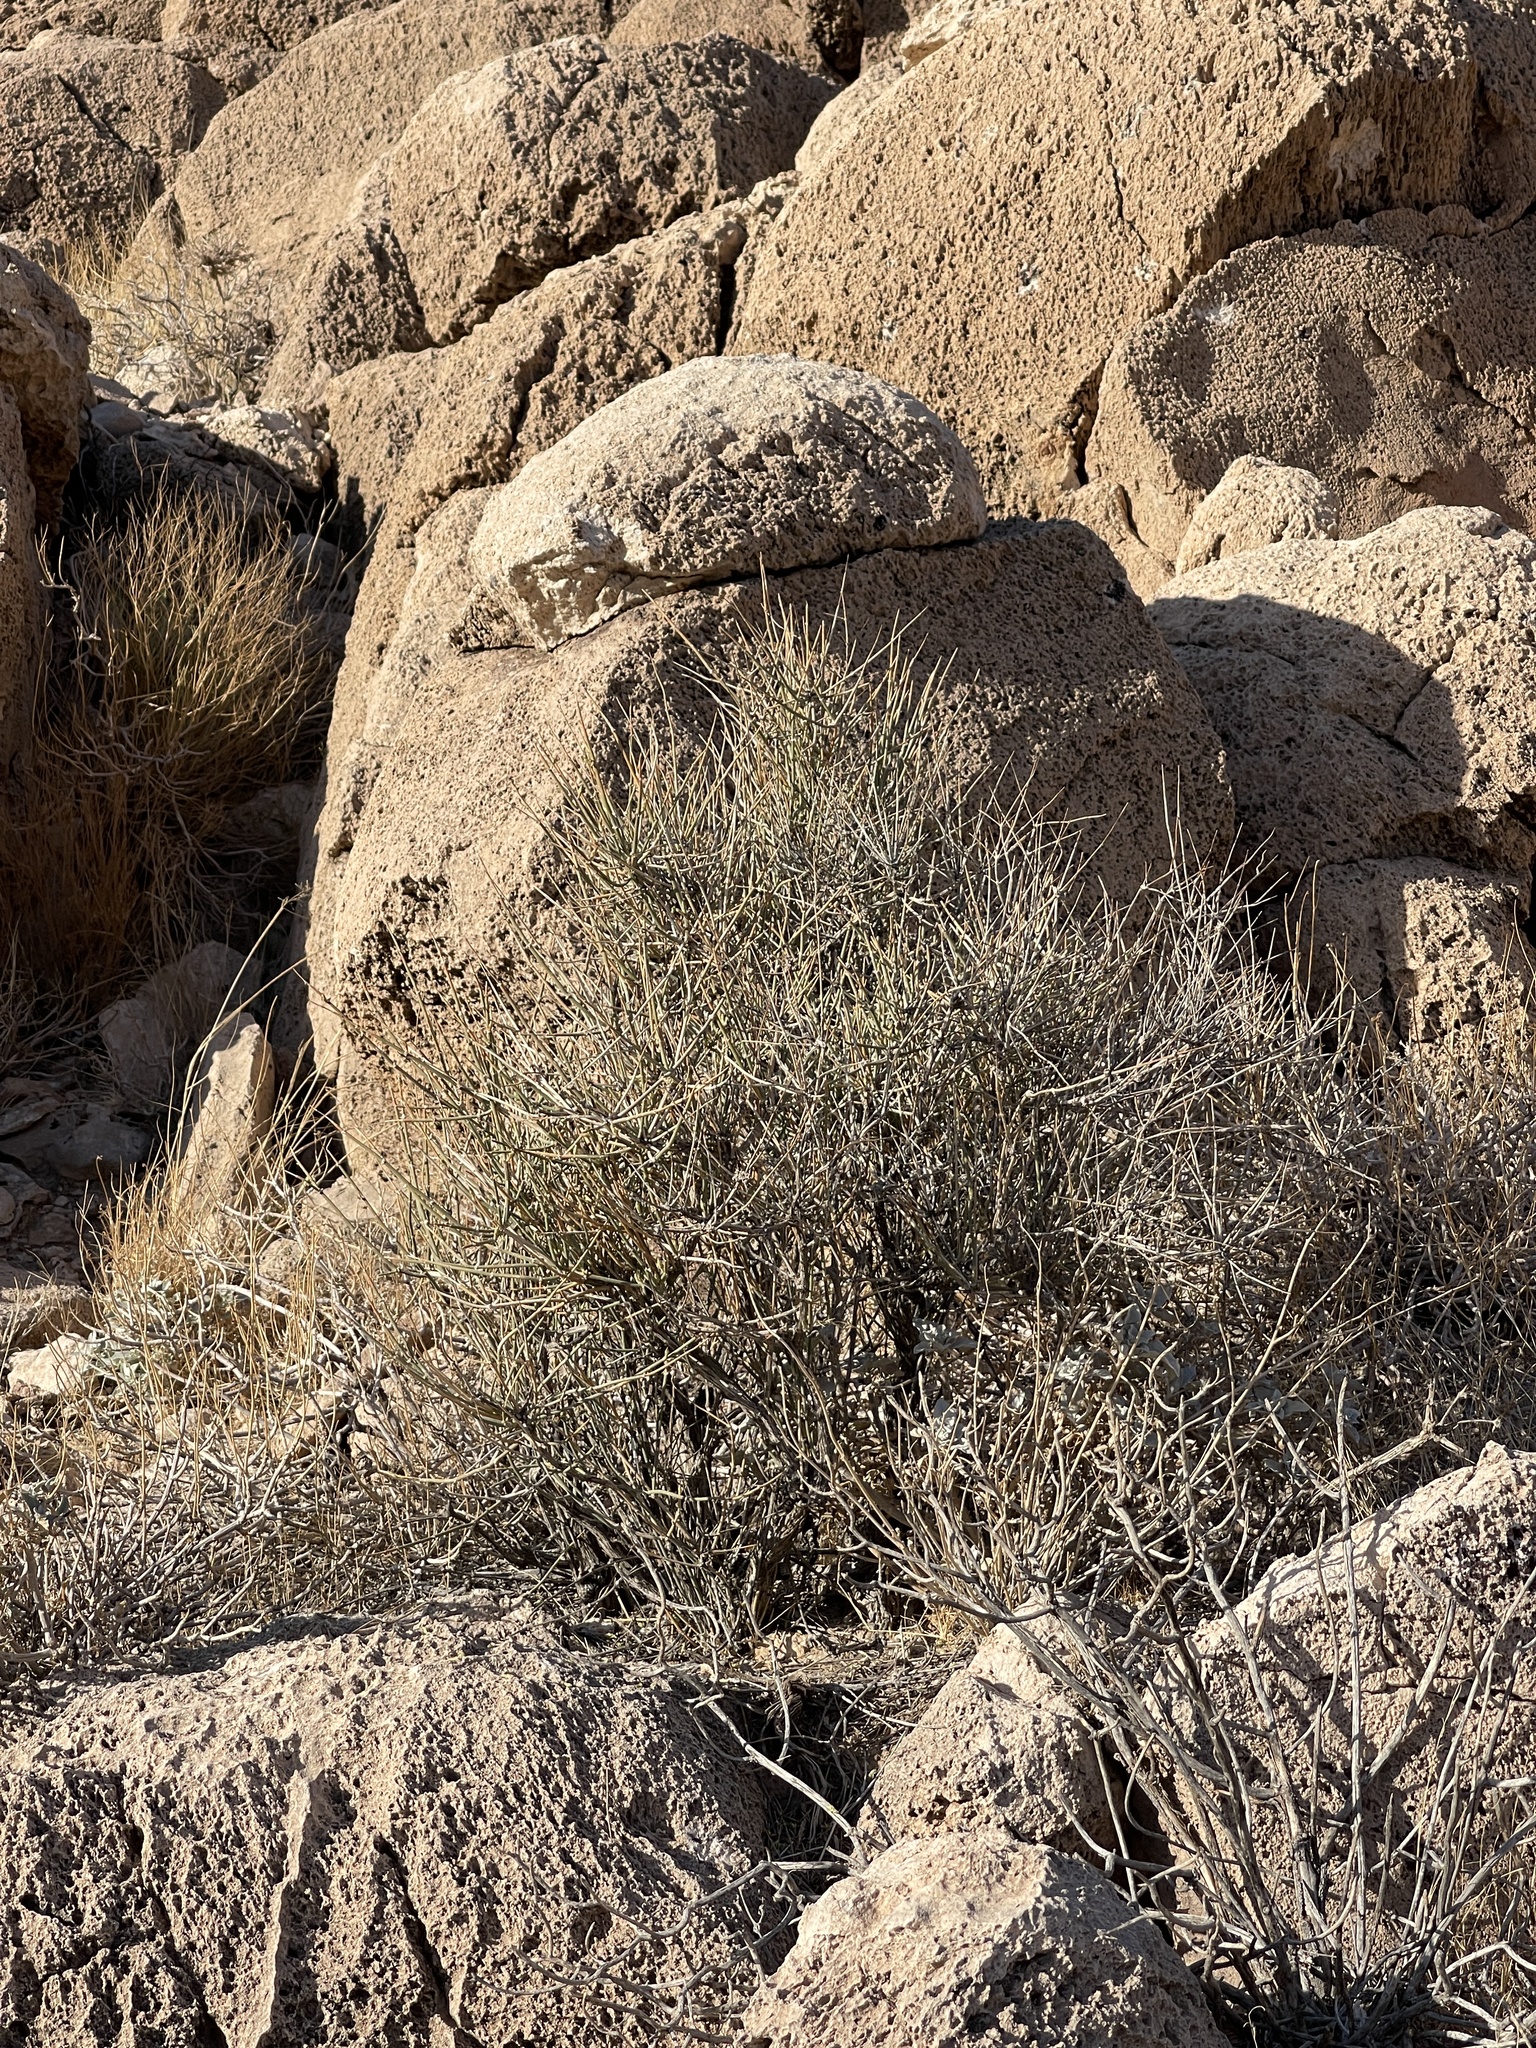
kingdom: Plantae
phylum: Tracheophyta
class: Gnetopsida
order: Ephedrales
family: Ephedraceae
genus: Ephedra
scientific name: Ephedra nevadensis
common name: Gray ephedra
